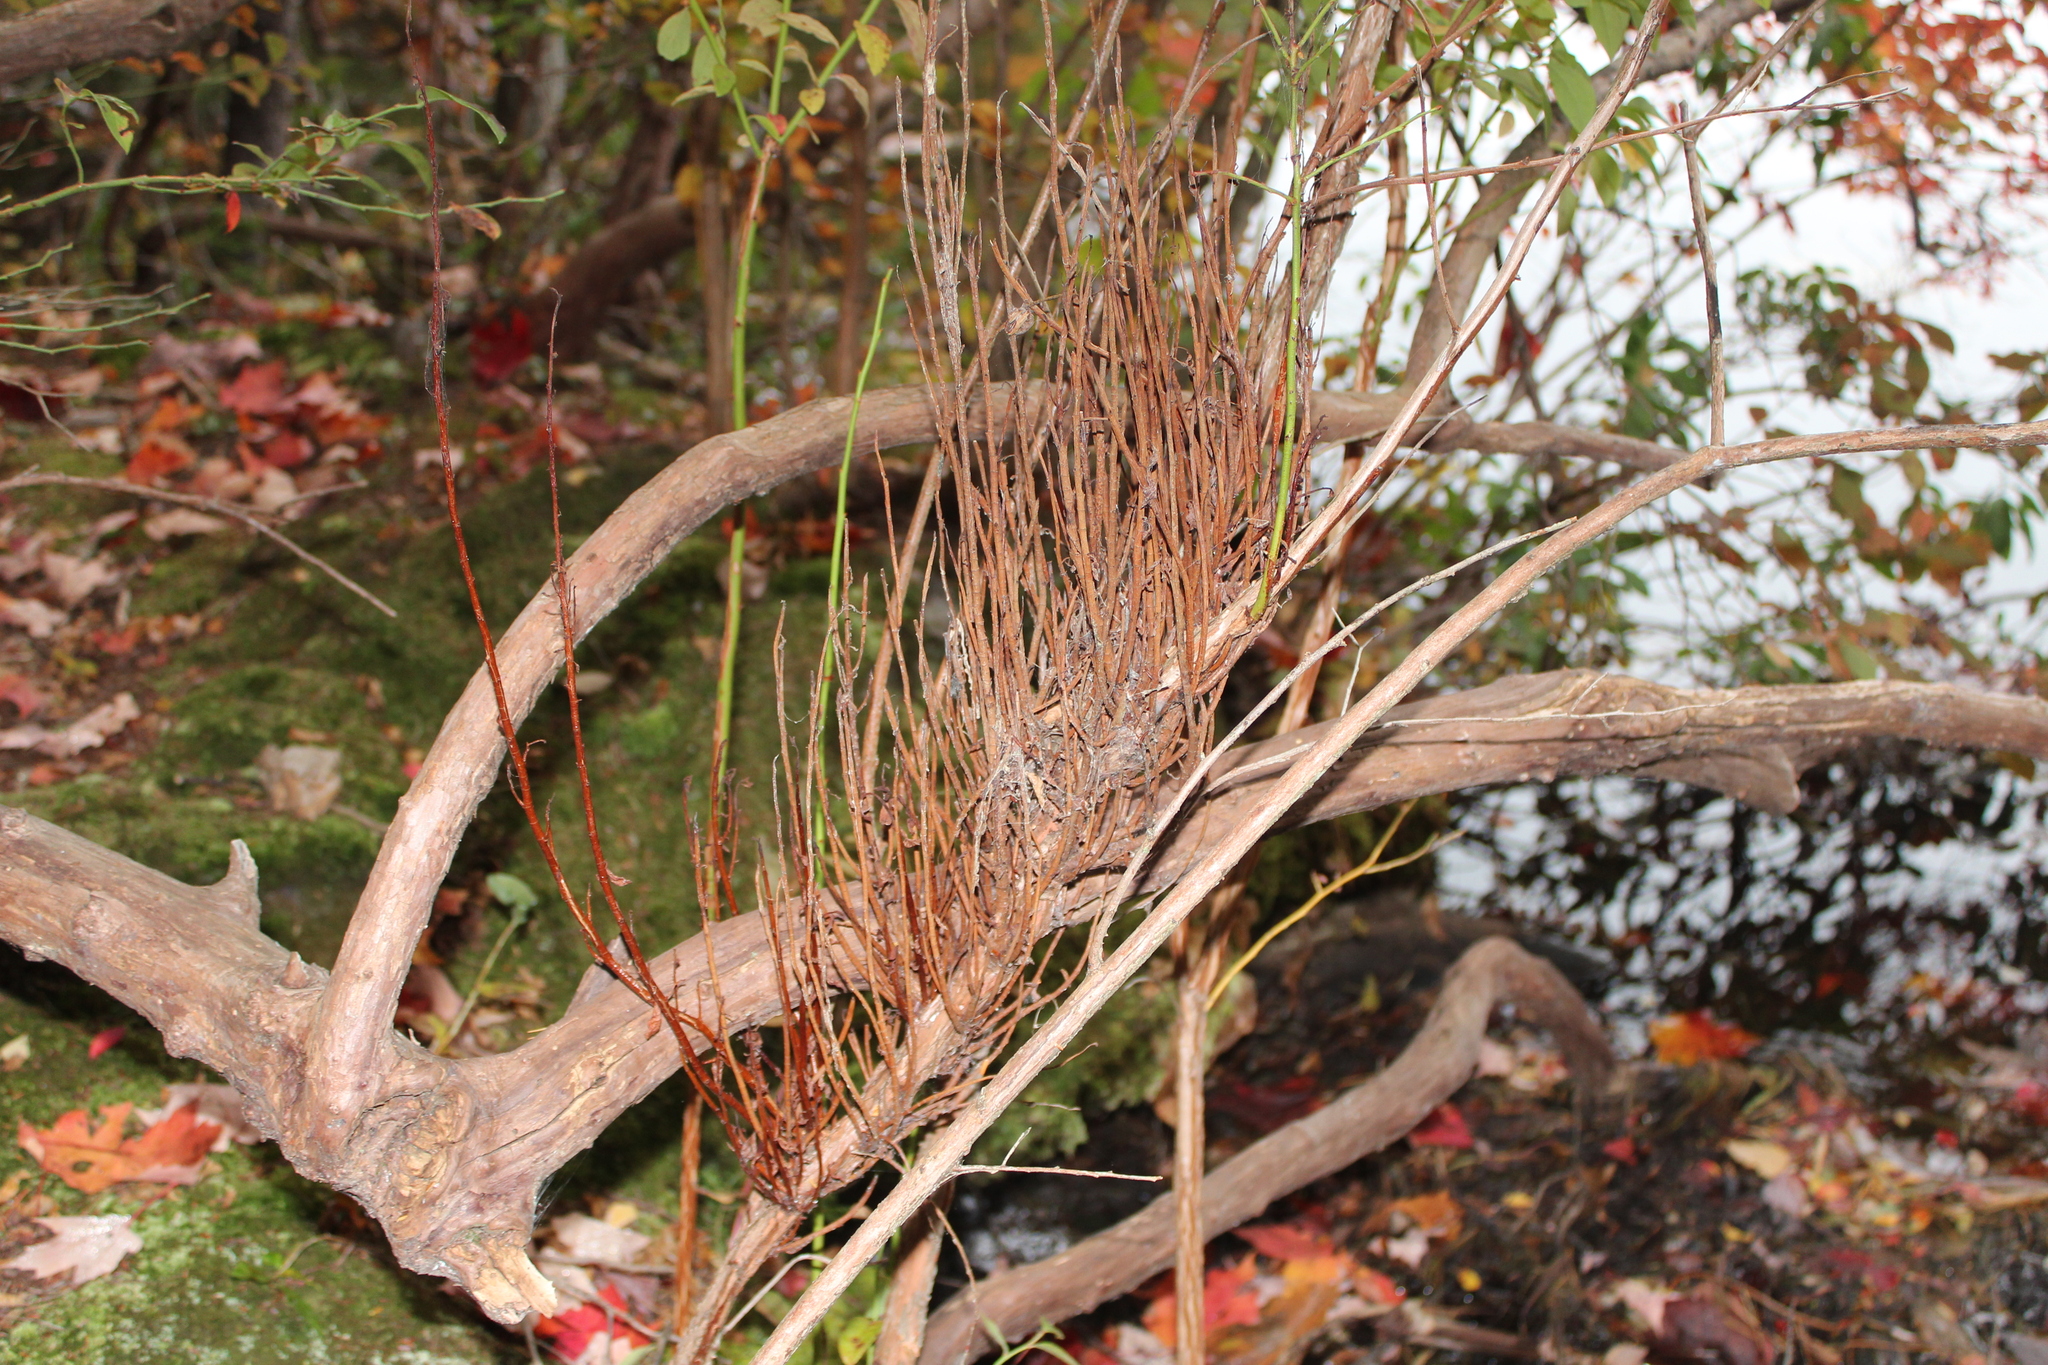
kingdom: Fungi
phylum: Basidiomycota
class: Pucciniomycetes
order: Pucciniales
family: Pucciniastraceae
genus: Calyptospora
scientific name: Calyptospora columnaris
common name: Huckleberry broom rust fungus
